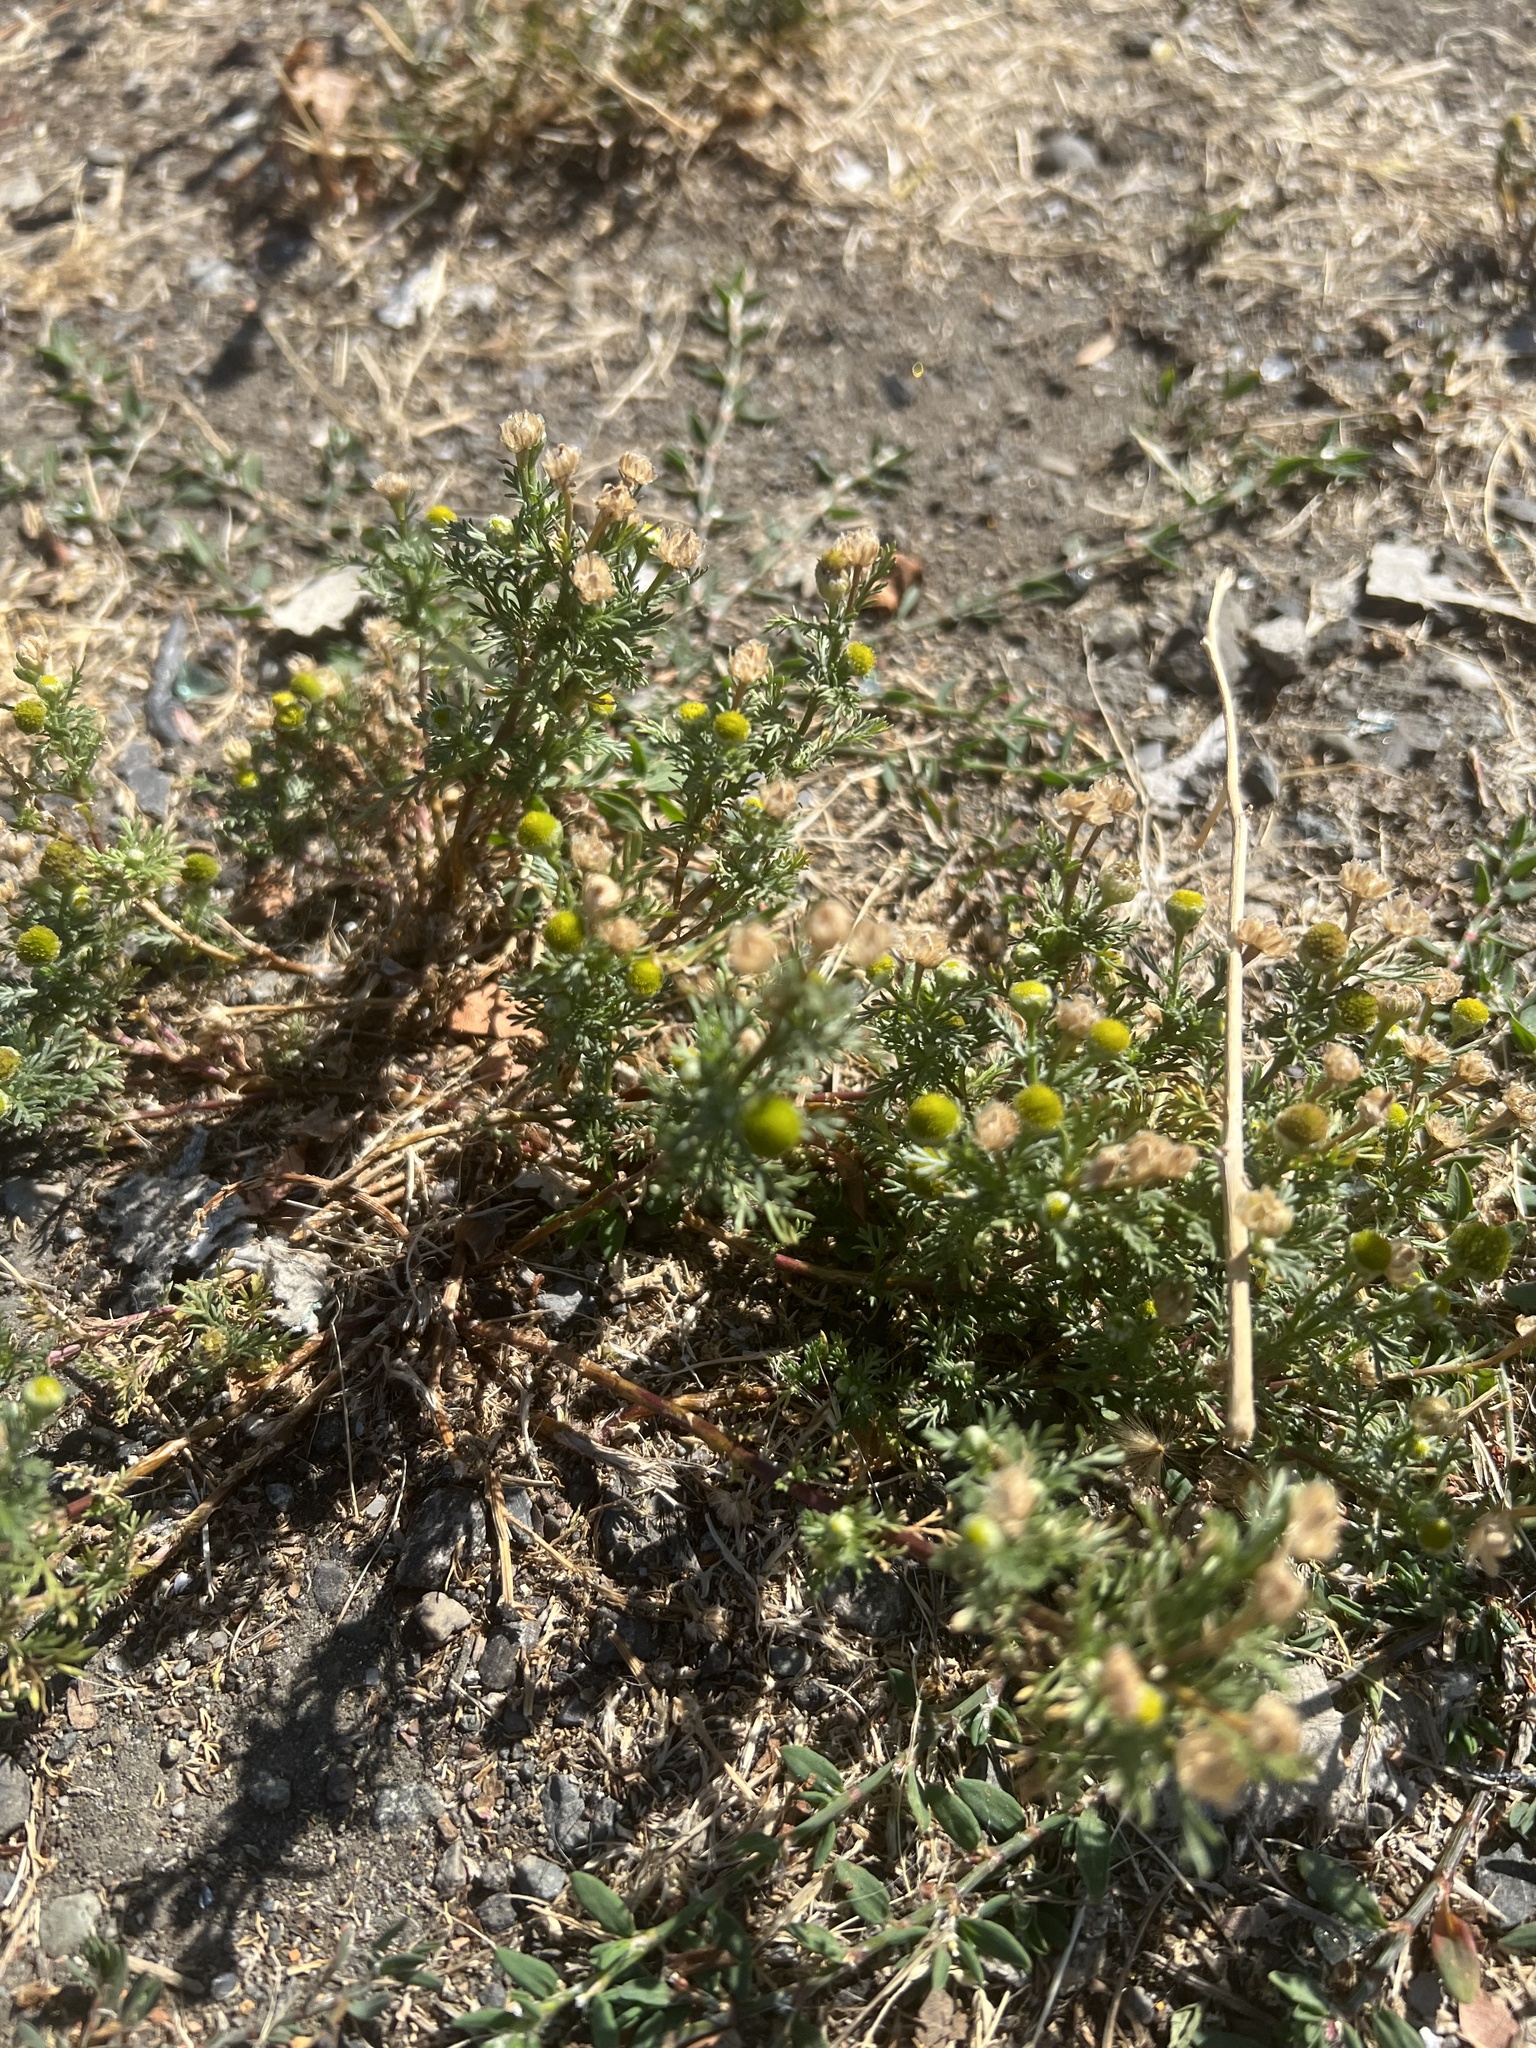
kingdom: Plantae
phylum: Tracheophyta
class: Magnoliopsida
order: Asterales
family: Asteraceae
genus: Matricaria
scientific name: Matricaria discoidea
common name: Disc mayweed
